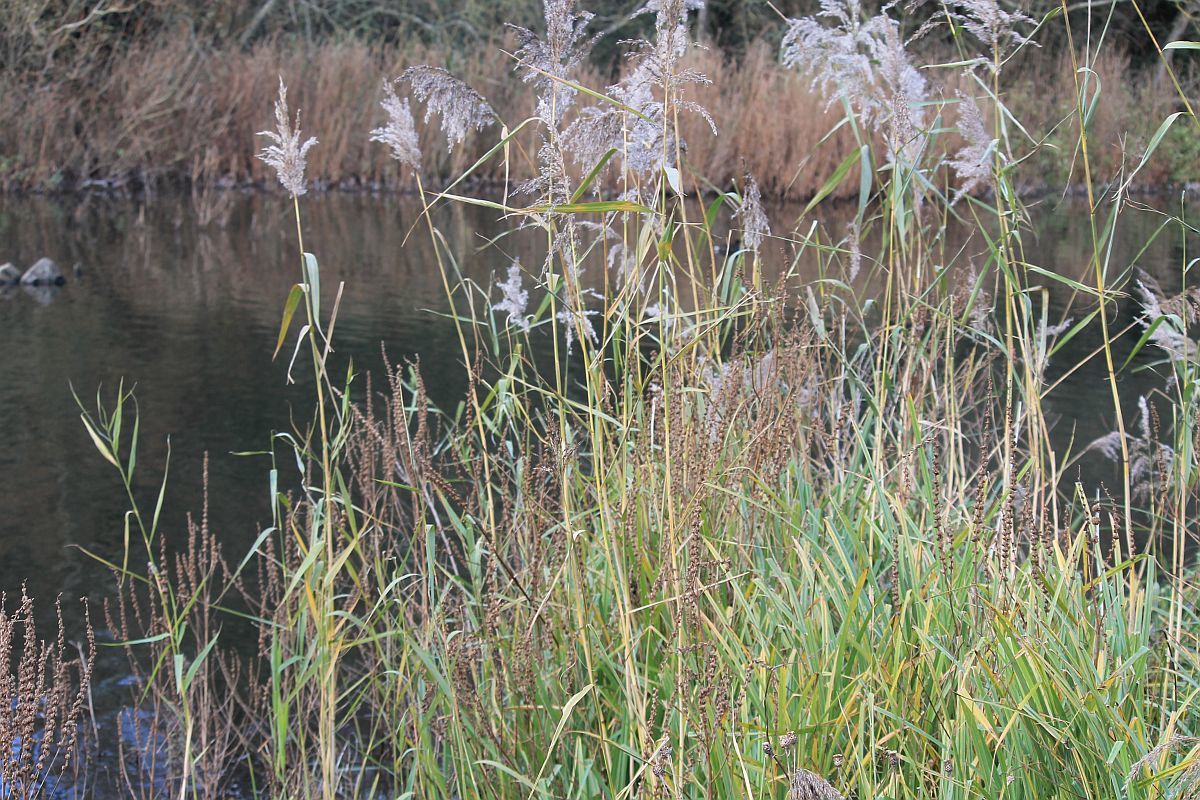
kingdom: Plantae
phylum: Tracheophyta
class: Liliopsida
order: Poales
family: Poaceae
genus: Phragmites
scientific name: Phragmites australis
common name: Common reed
